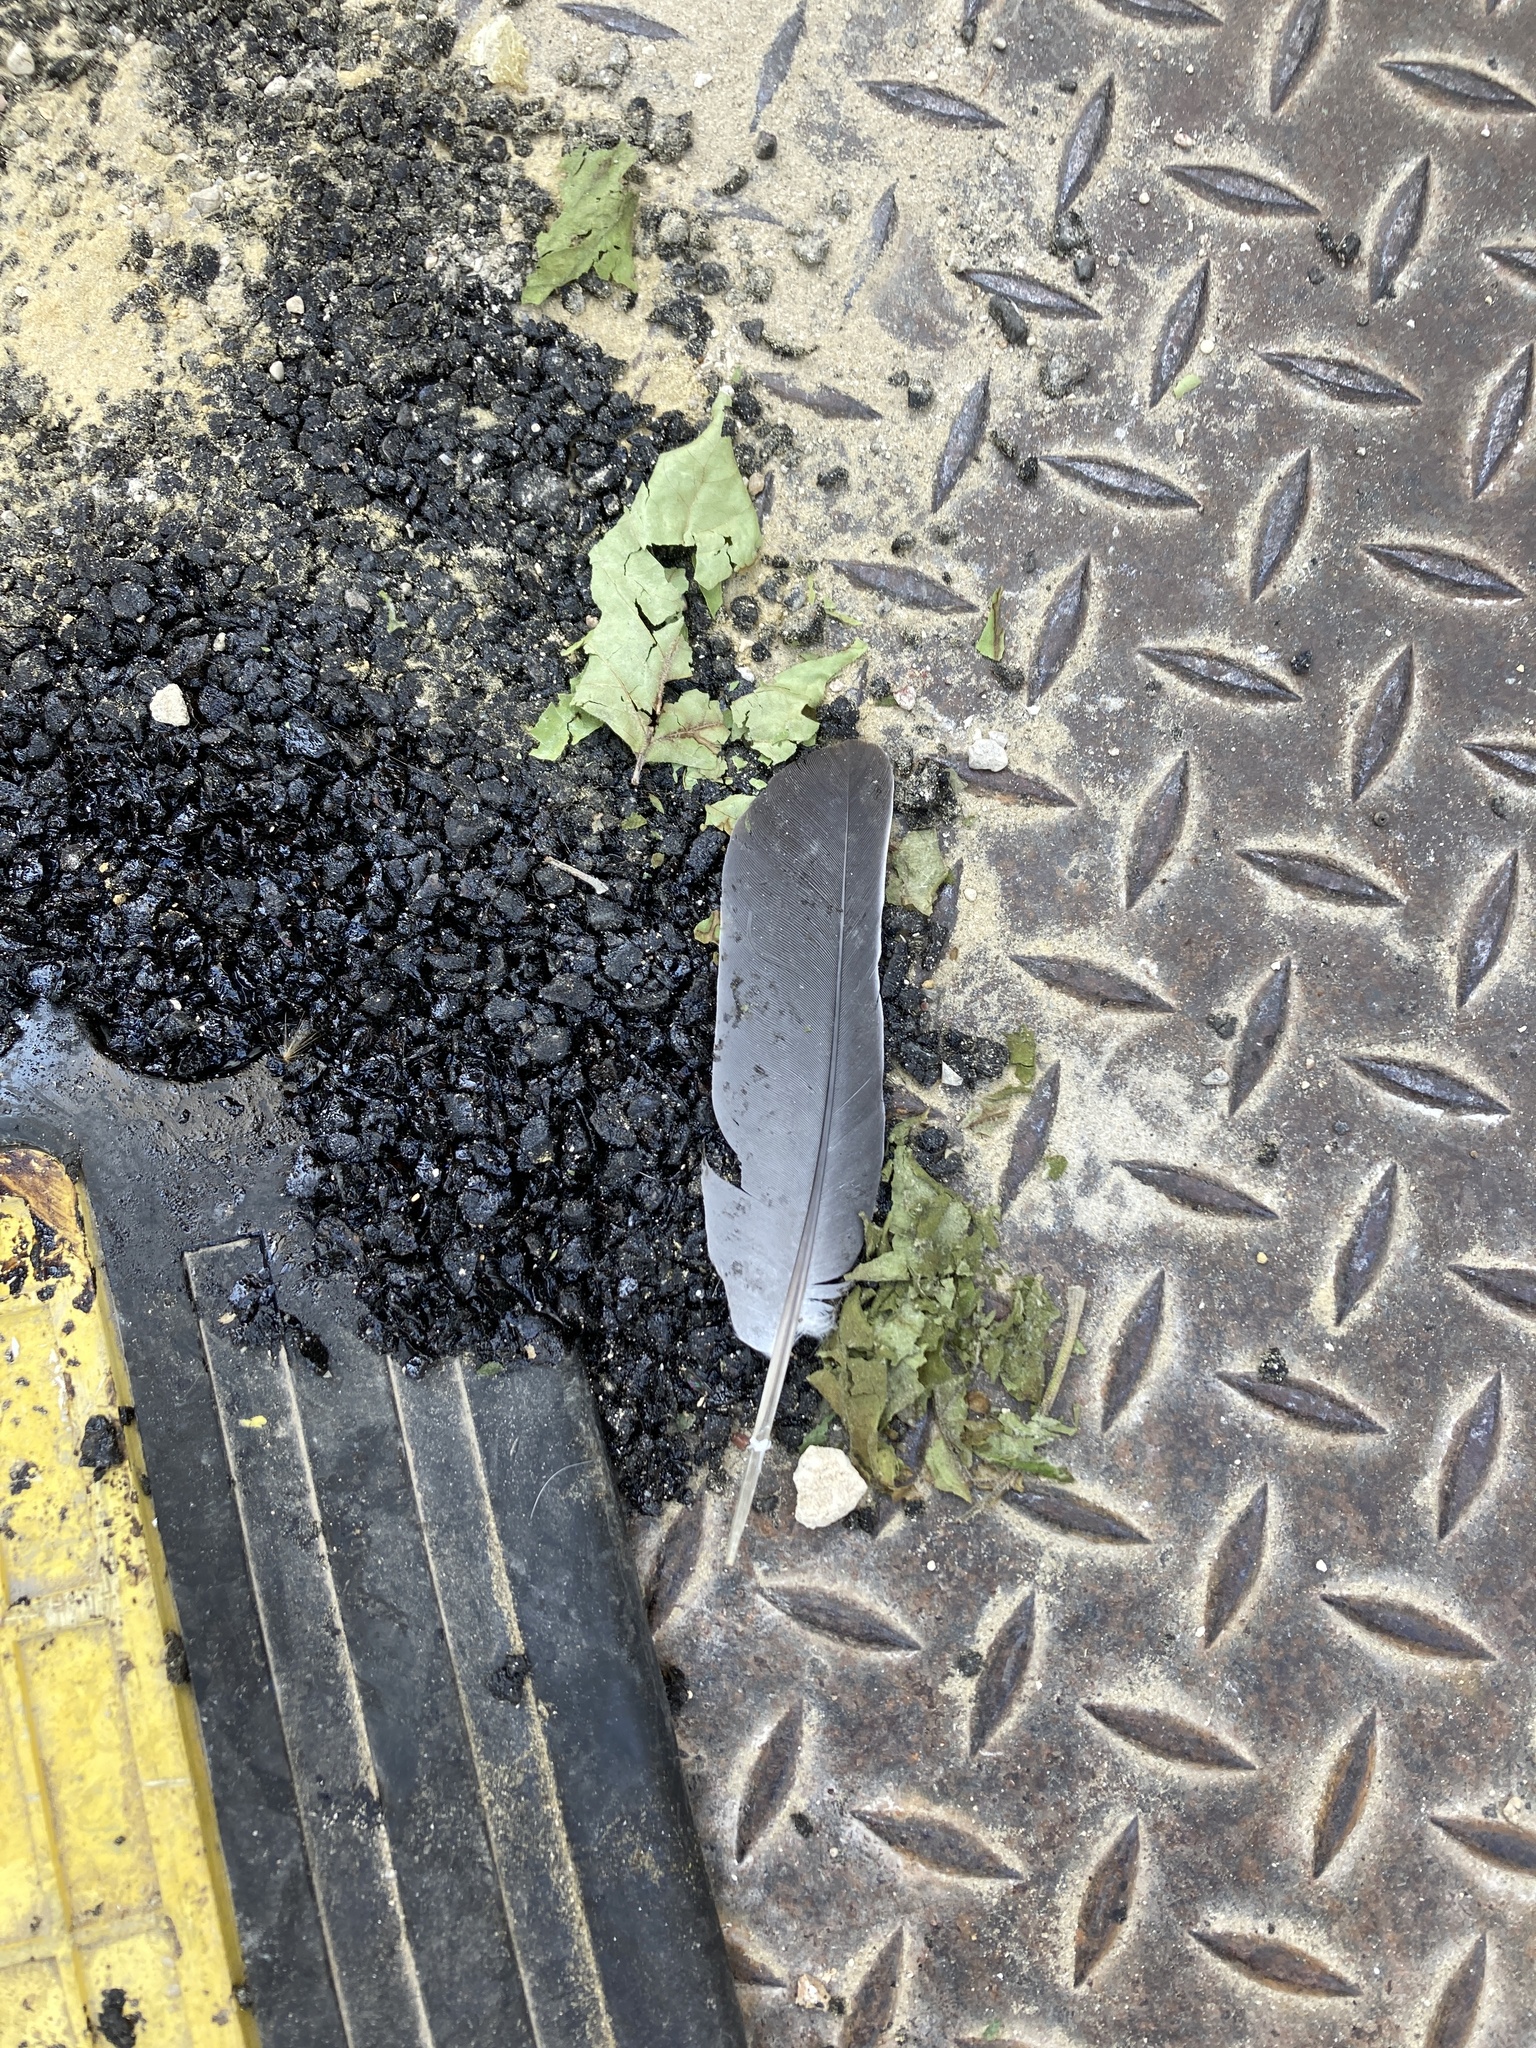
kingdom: Animalia
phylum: Chordata
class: Aves
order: Columbiformes
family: Columbidae
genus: Columba
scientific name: Columba palumbus
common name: Common wood pigeon
